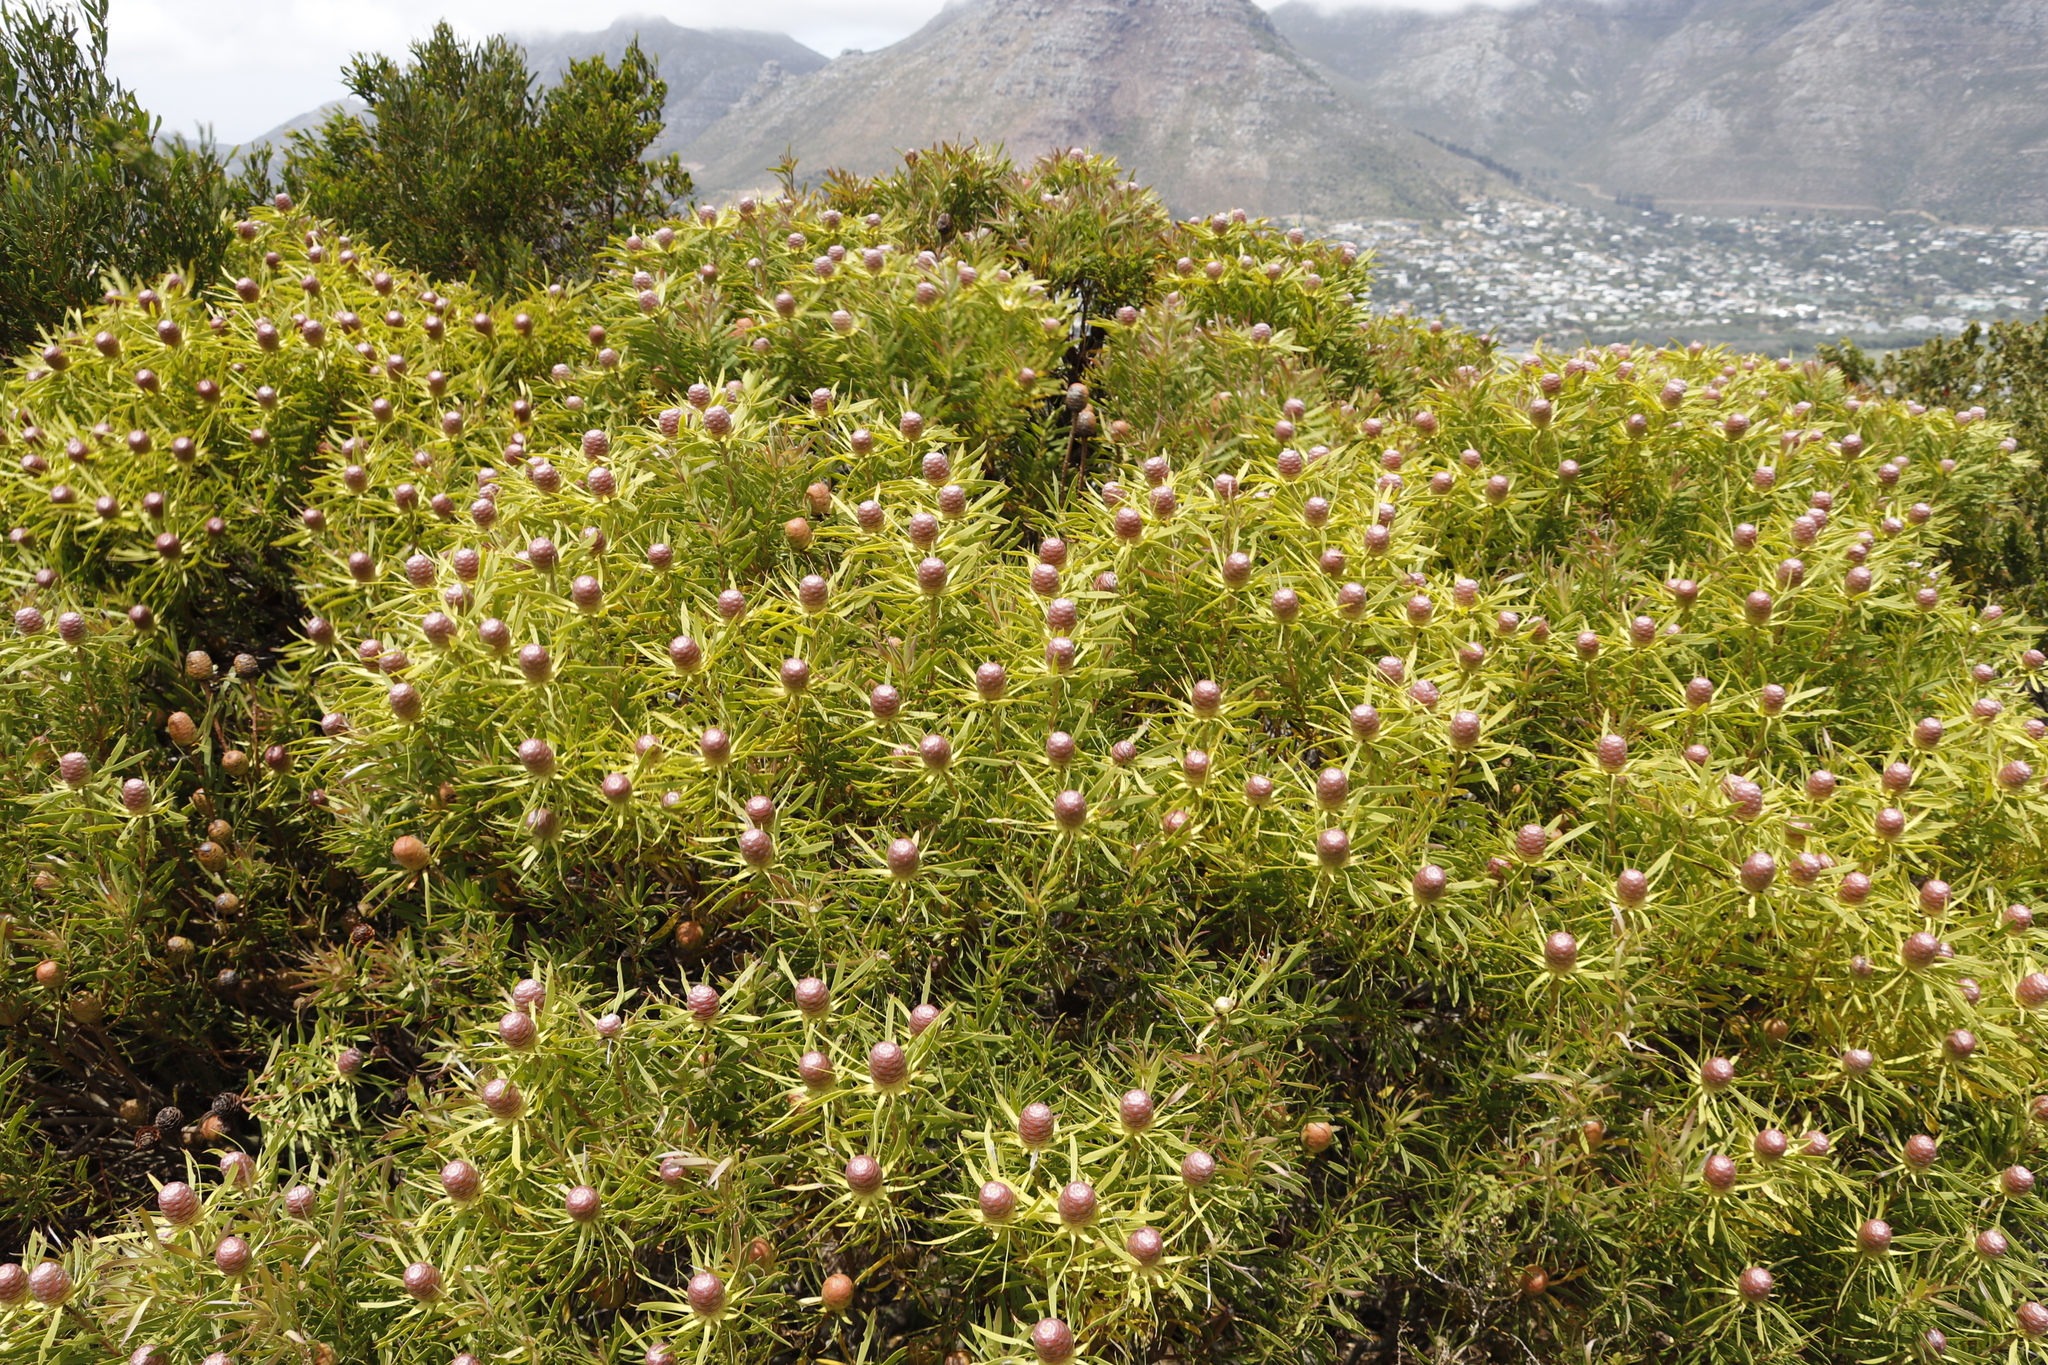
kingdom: Plantae
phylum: Tracheophyta
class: Magnoliopsida
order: Proteales
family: Proteaceae
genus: Leucadendron
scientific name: Leucadendron coniferum
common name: Dune conebush
